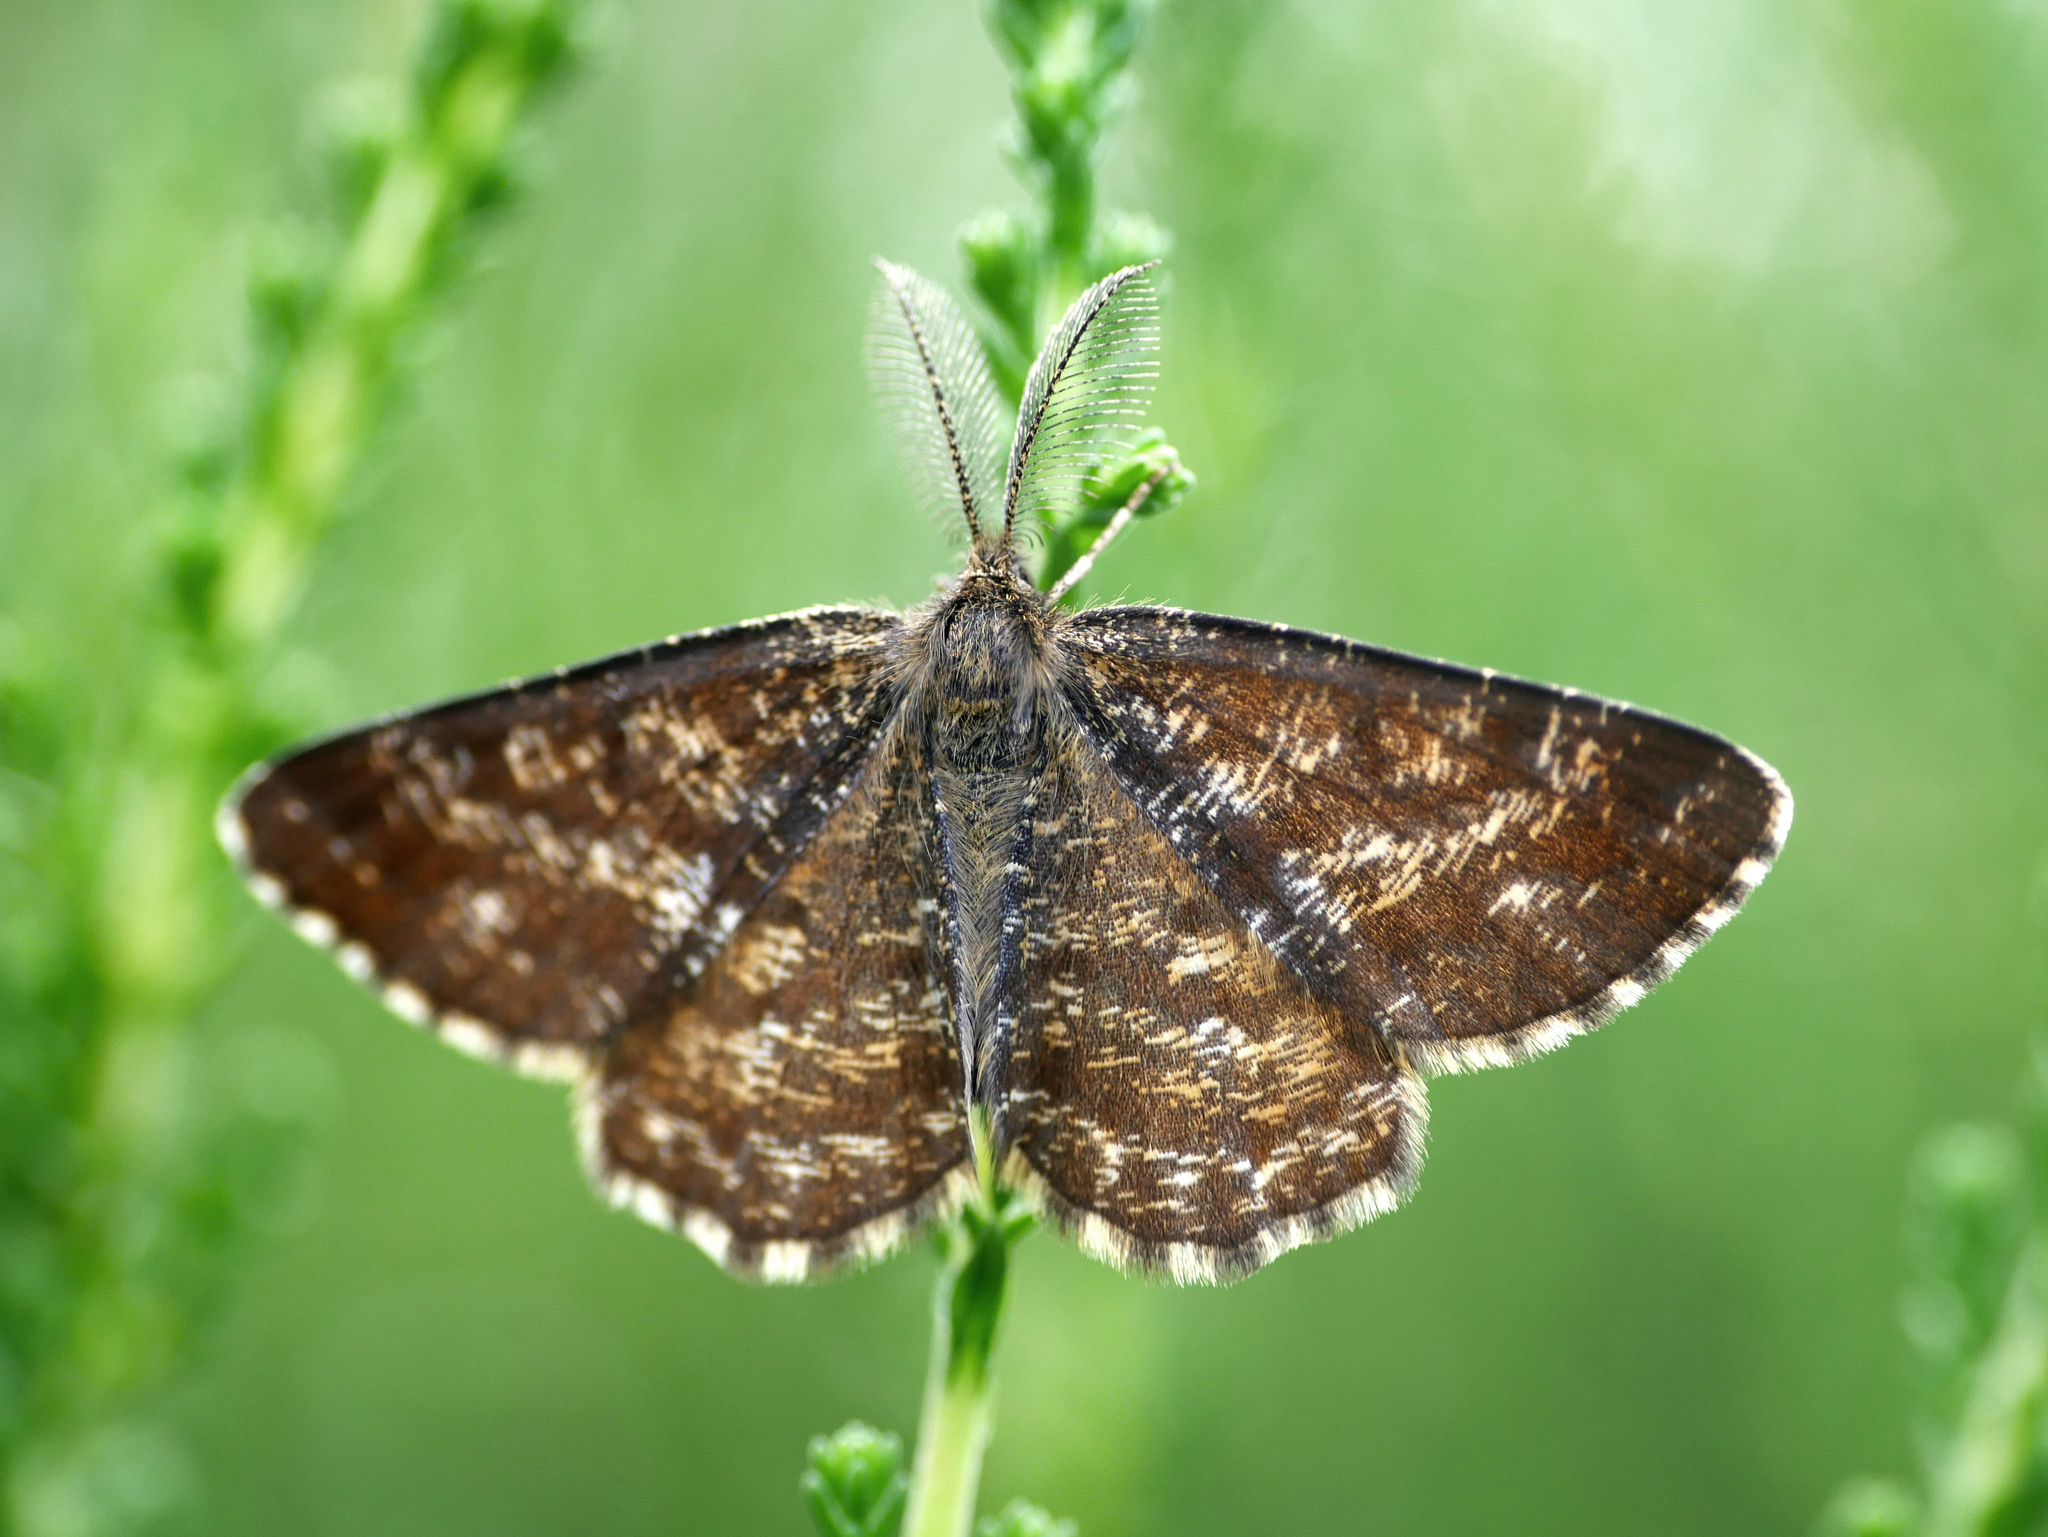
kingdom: Animalia
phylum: Arthropoda
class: Insecta
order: Lepidoptera
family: Geometridae
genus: Ematurga
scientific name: Ematurga atomaria
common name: Common heath
